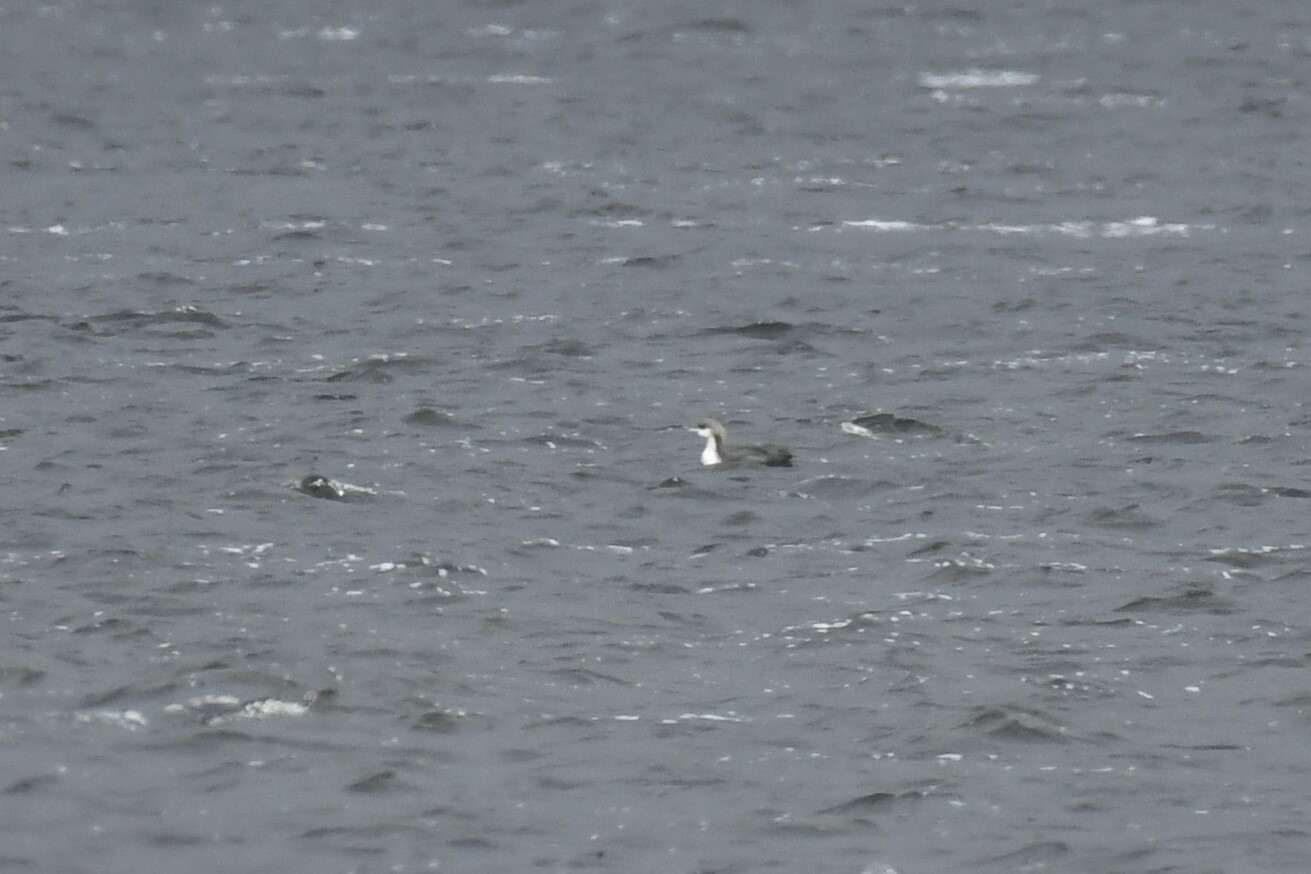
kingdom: Animalia
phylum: Chordata
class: Aves
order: Gaviiformes
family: Gaviidae
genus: Gavia
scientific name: Gavia pacifica
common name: Pacific loon
